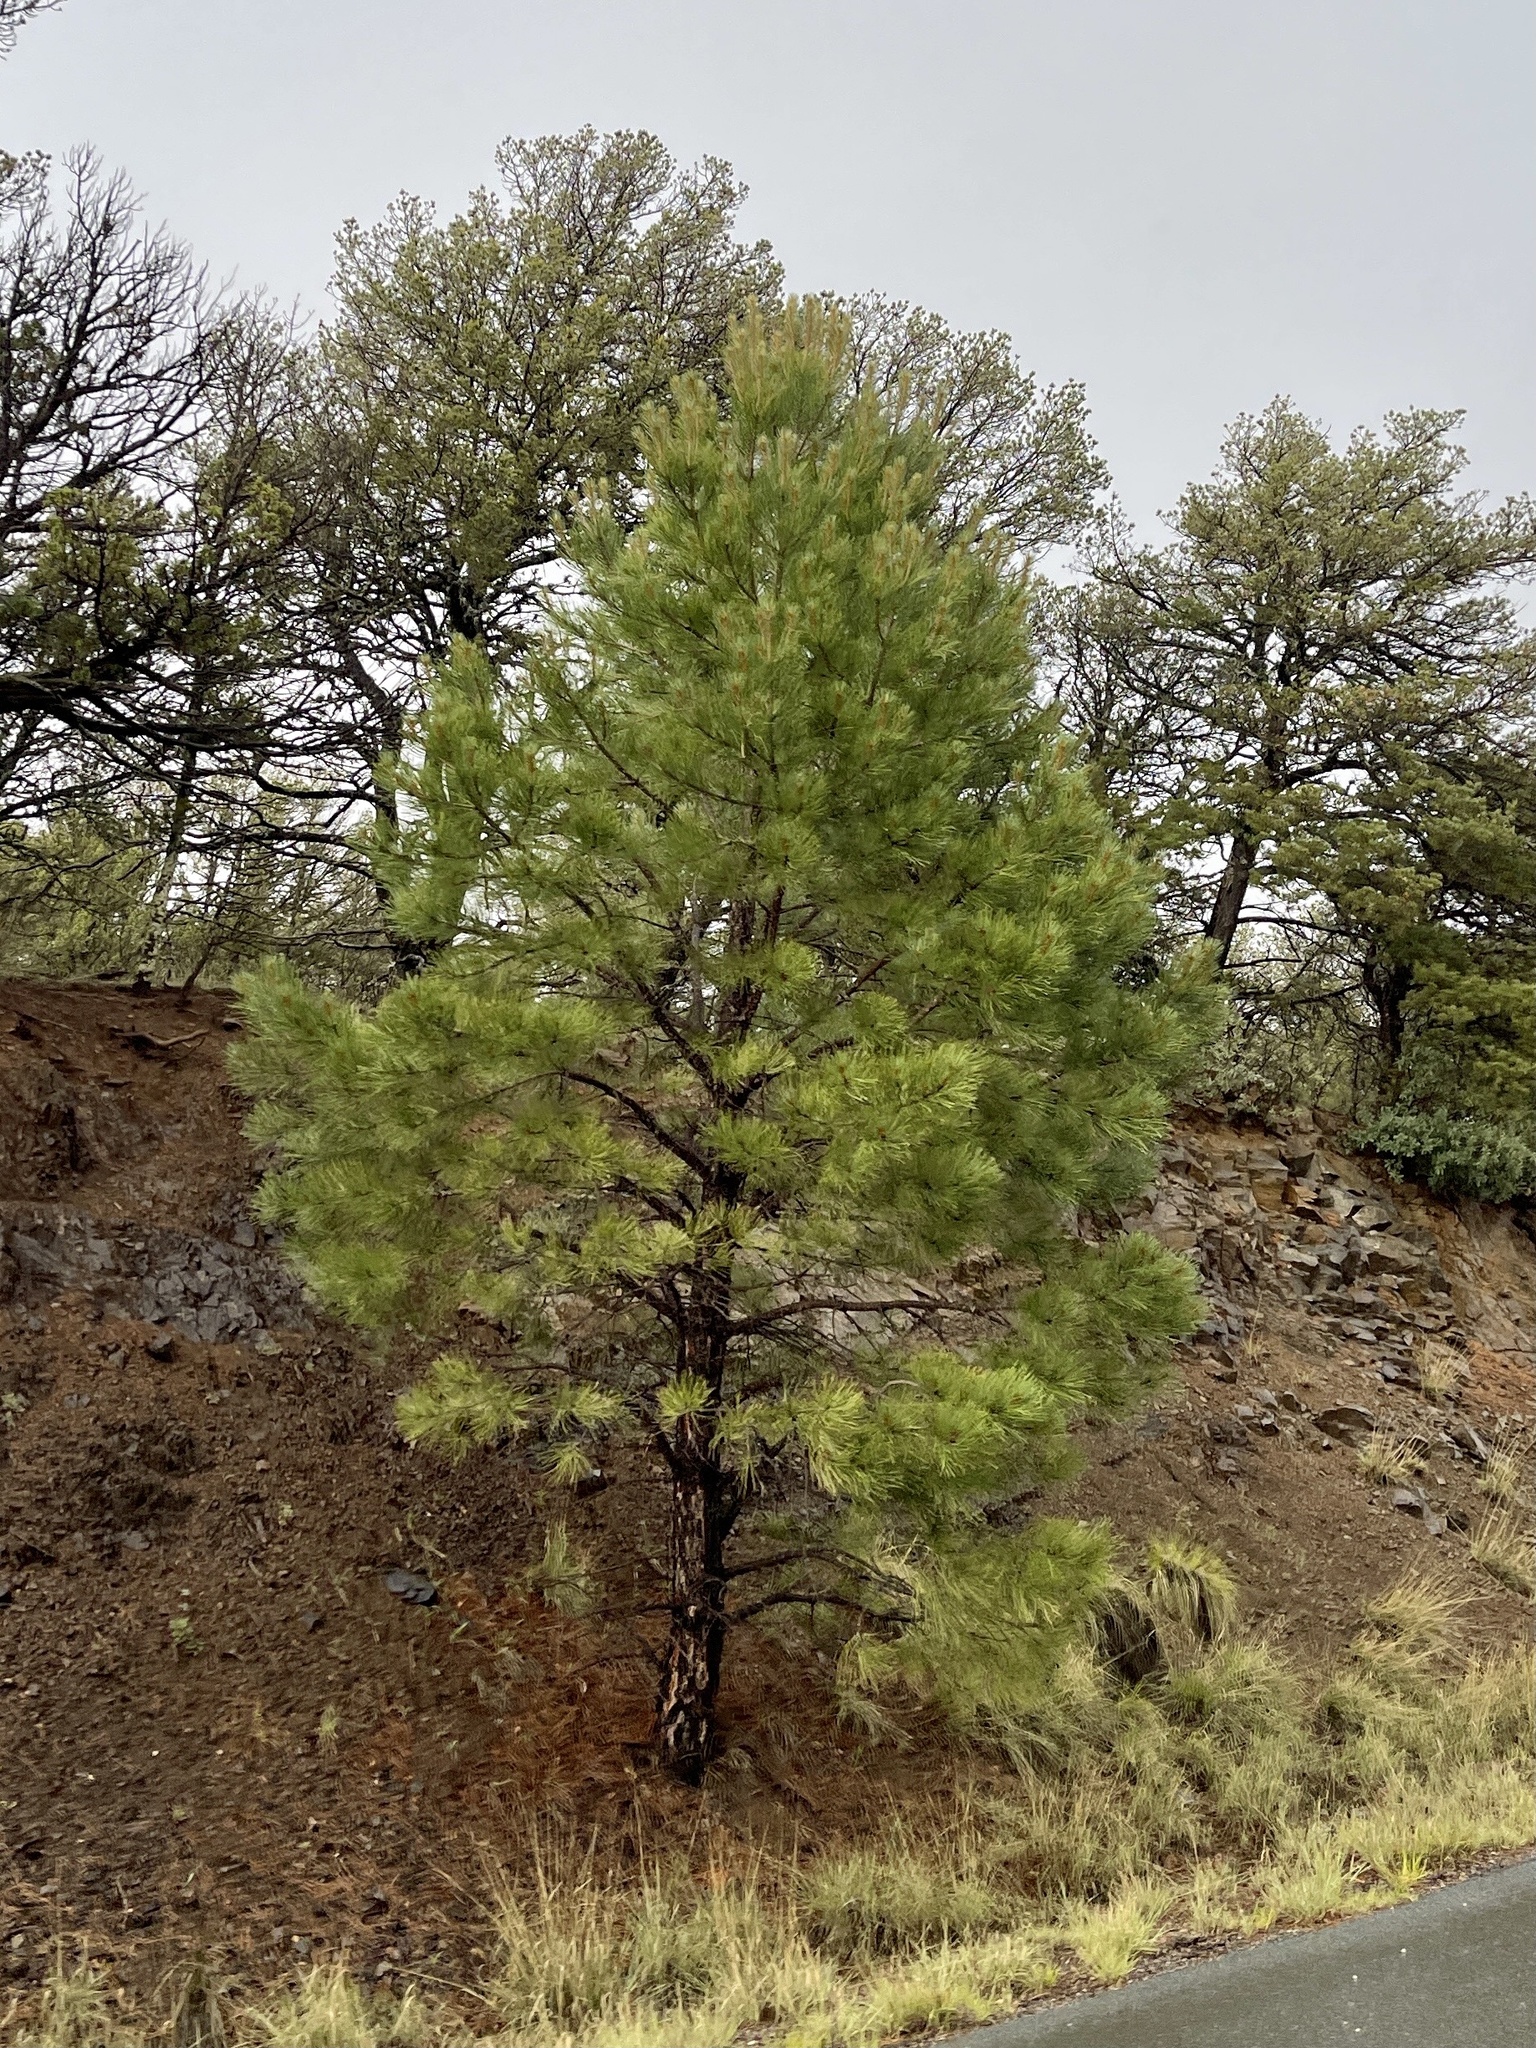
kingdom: Plantae
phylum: Tracheophyta
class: Pinopsida
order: Pinales
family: Pinaceae
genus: Pinus
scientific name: Pinus ponderosa
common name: Western yellow-pine
